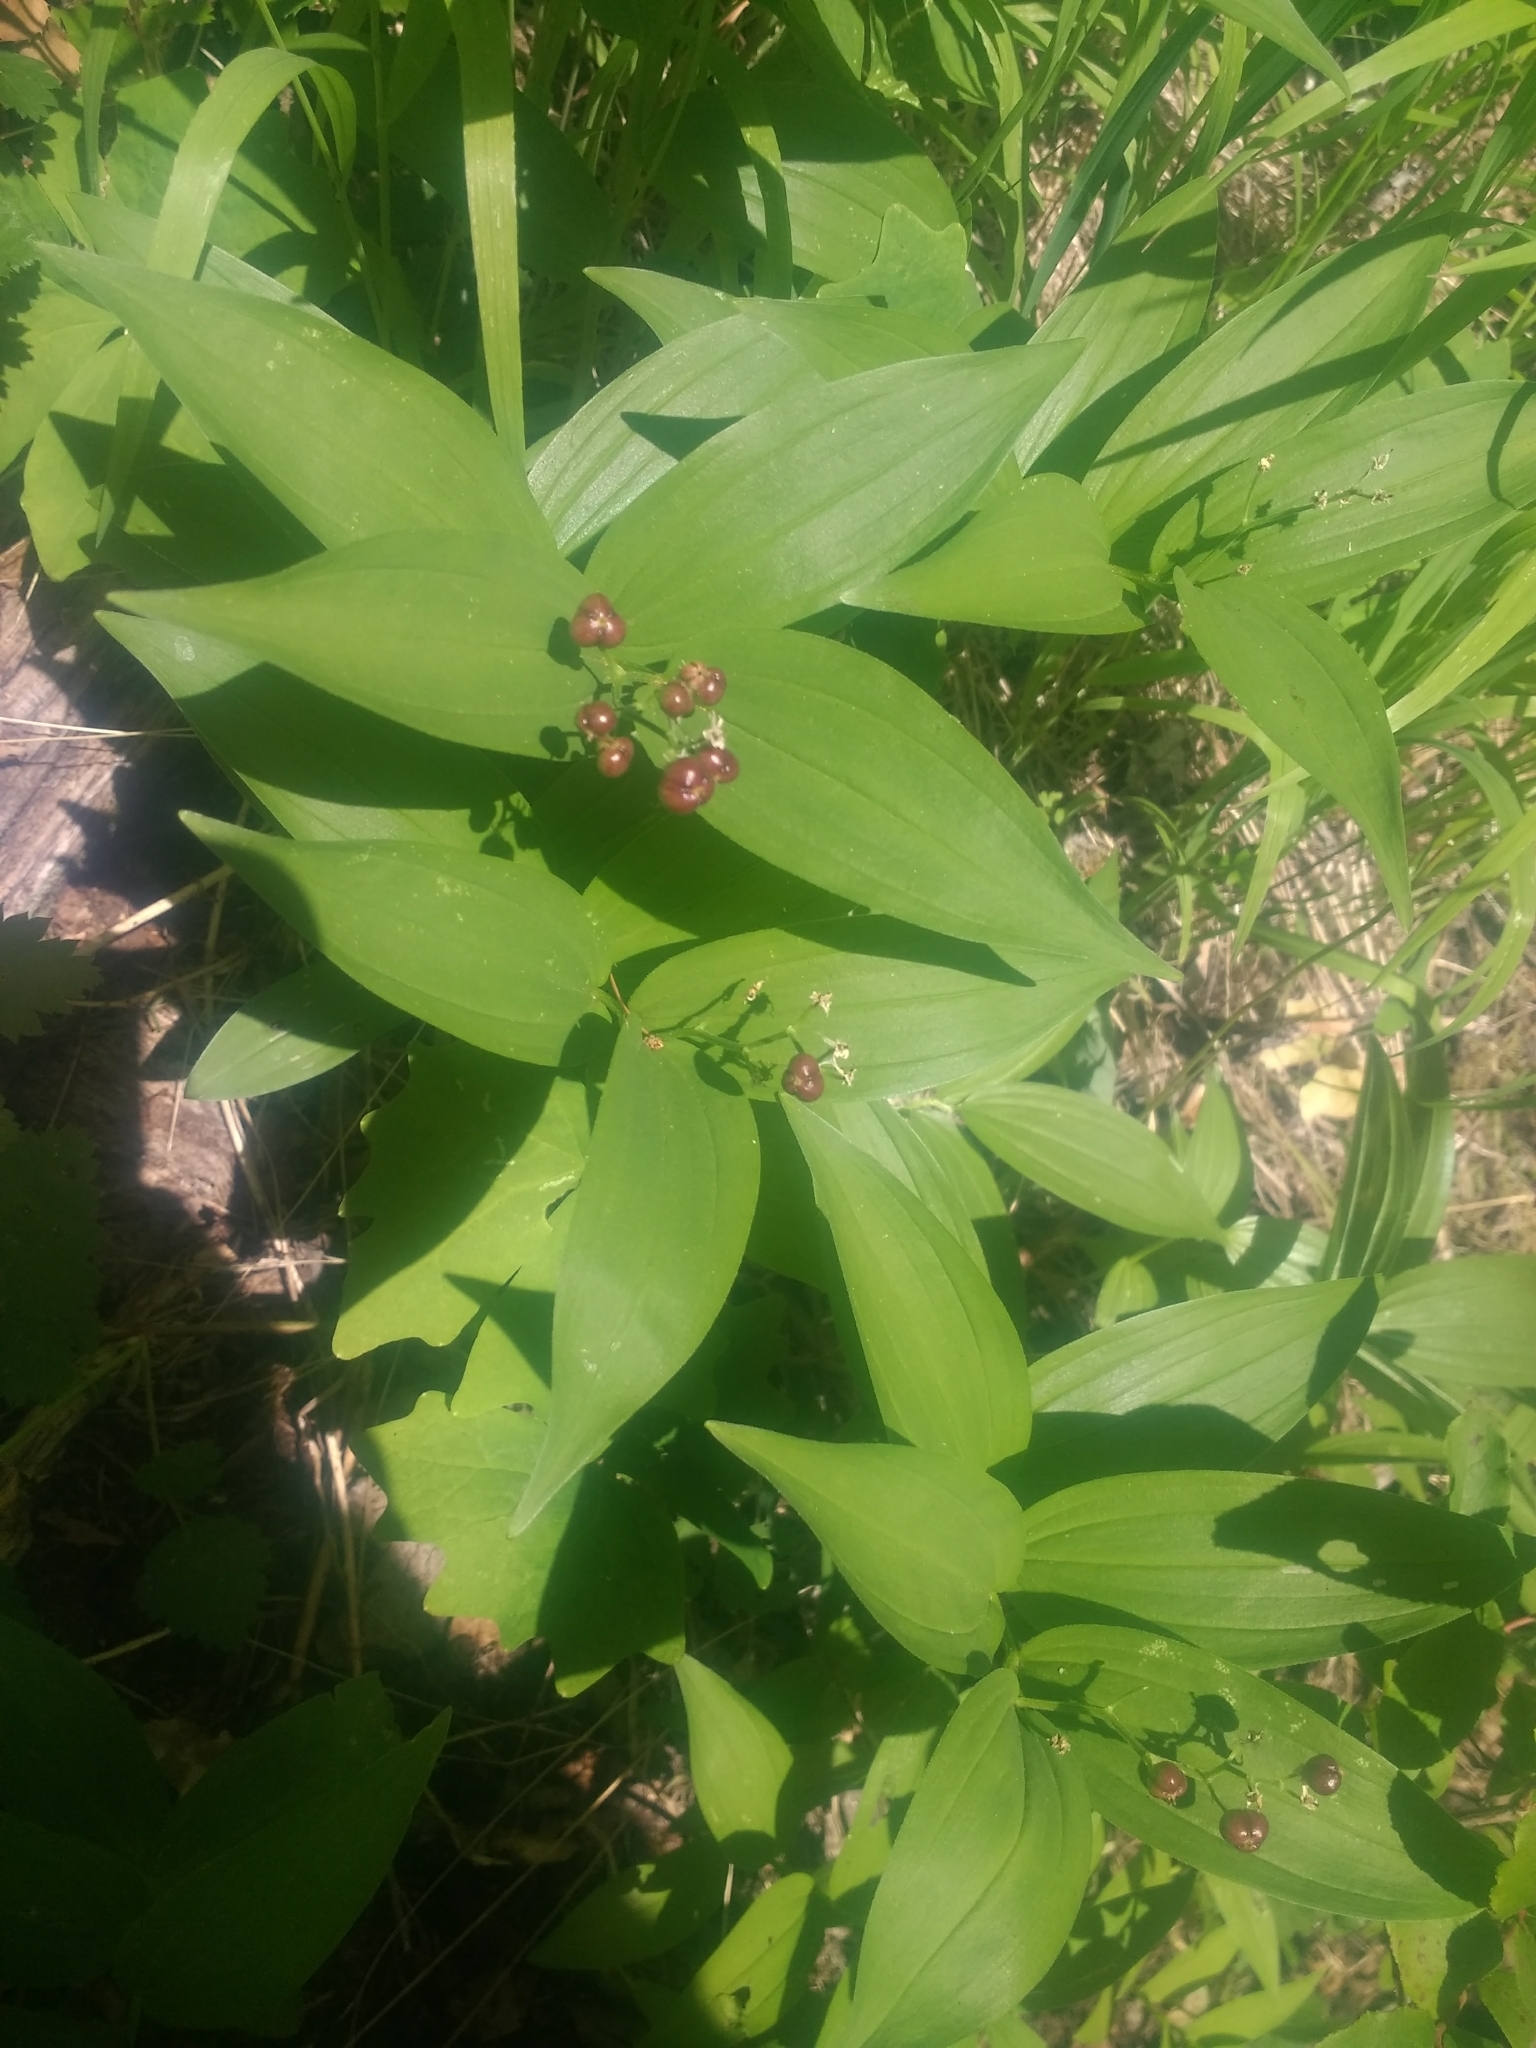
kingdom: Plantae
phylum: Tracheophyta
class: Liliopsida
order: Asparagales
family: Asparagaceae
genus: Maianthemum
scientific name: Maianthemum stellatum
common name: Little false solomon's seal
